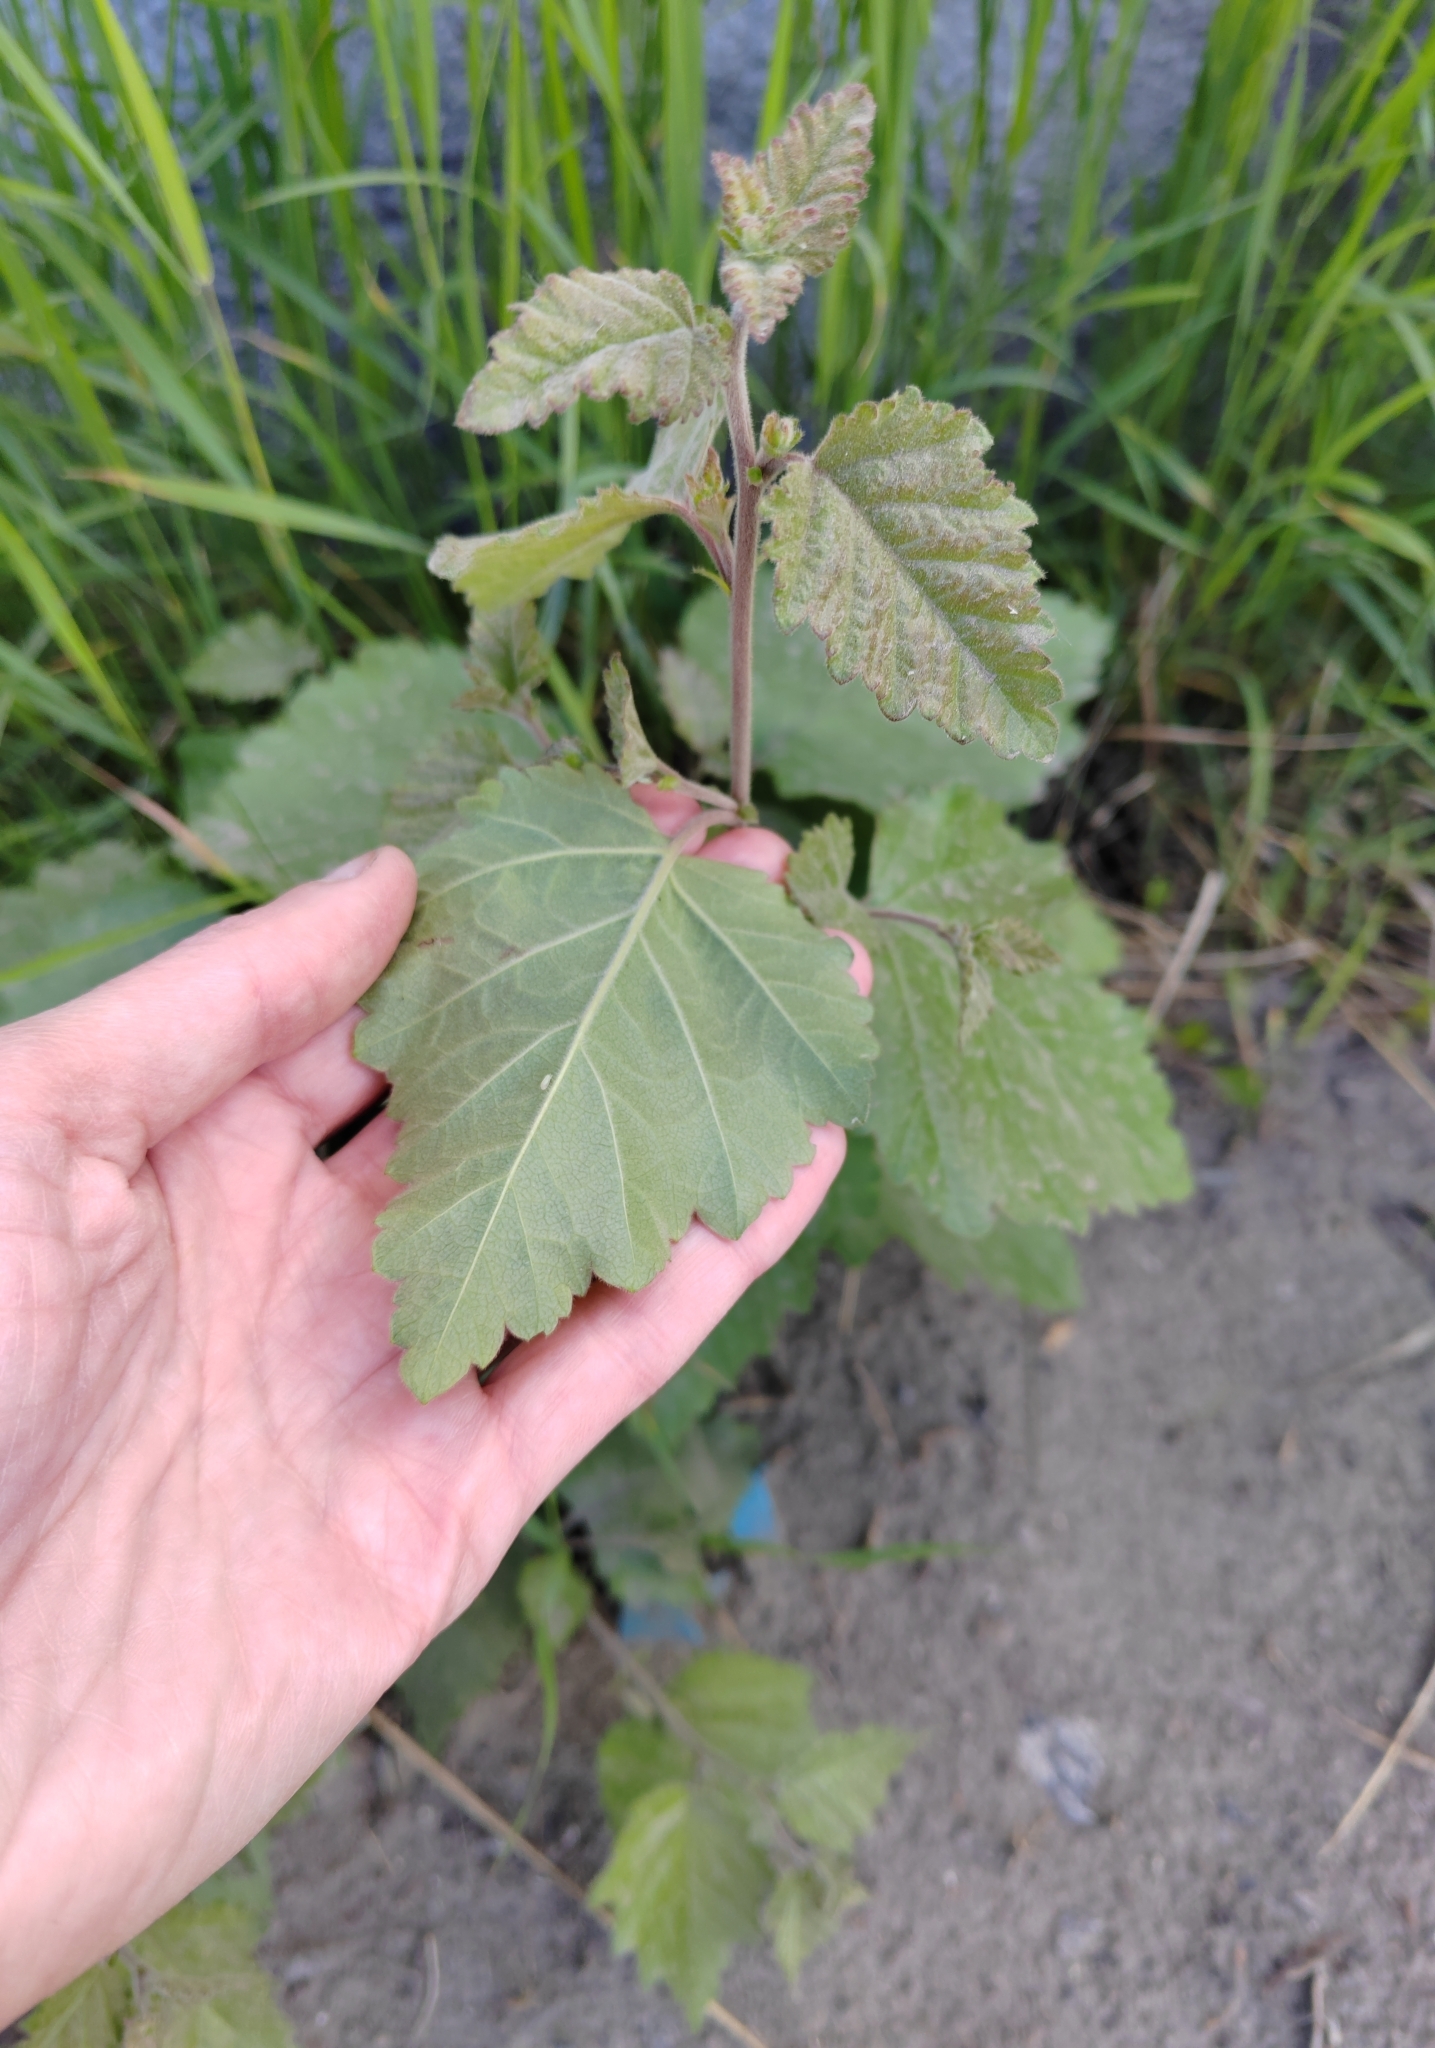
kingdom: Plantae
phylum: Tracheophyta
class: Magnoliopsida
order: Fagales
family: Betulaceae
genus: Betula
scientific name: Betula pubescens
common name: Downy birch
